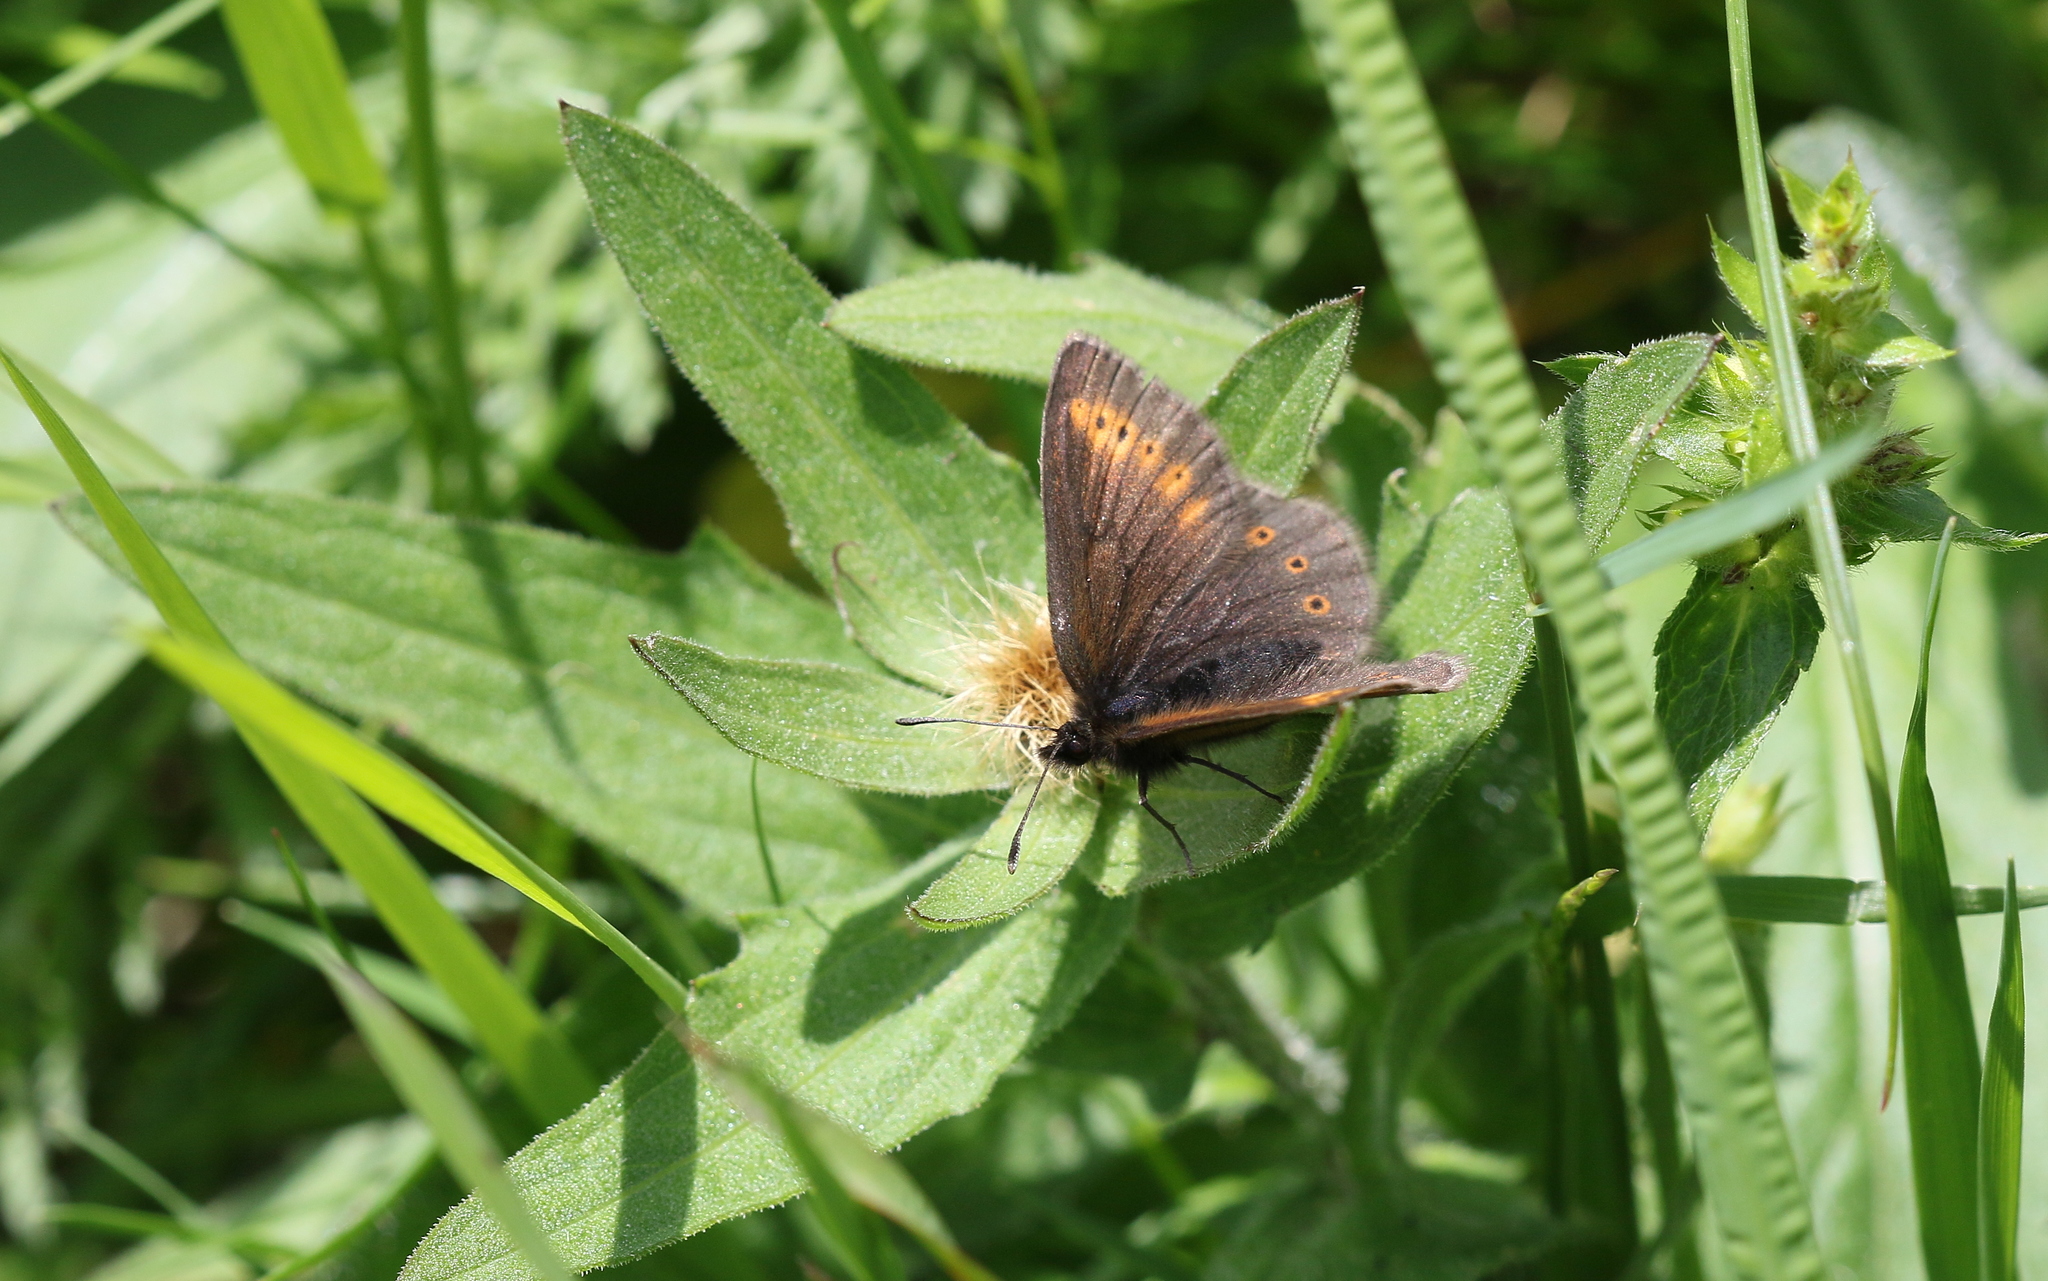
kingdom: Animalia
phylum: Arthropoda
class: Insecta
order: Lepidoptera
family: Nymphalidae
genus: Erebia
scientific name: Erebia flavofasciata
